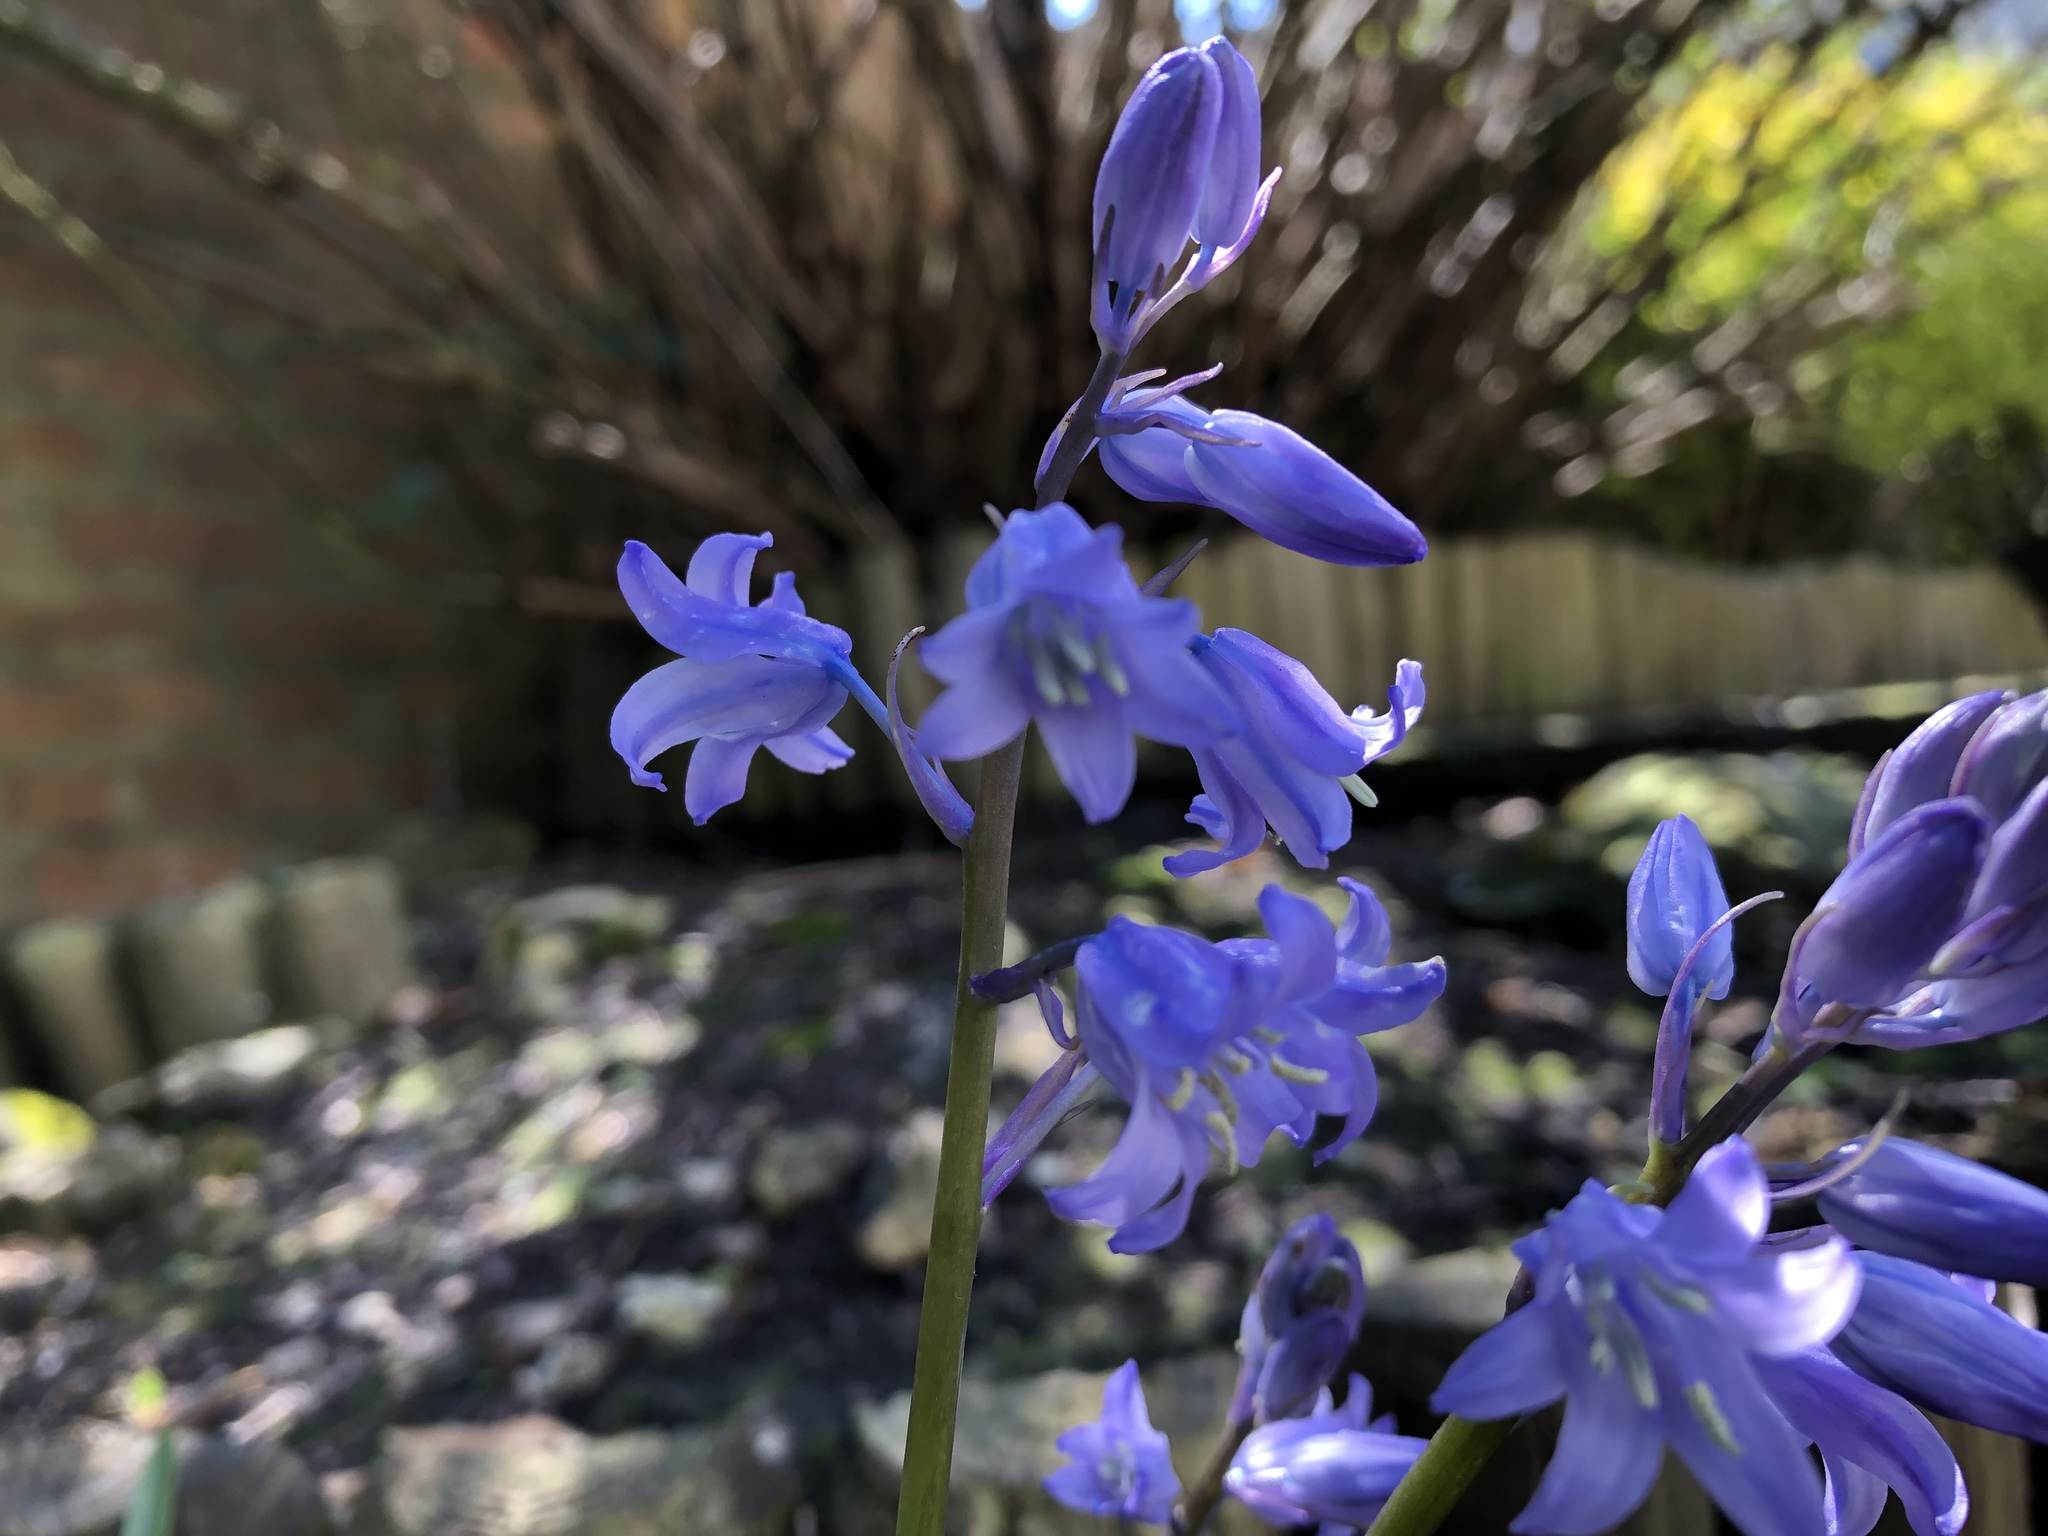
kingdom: Plantae
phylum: Tracheophyta
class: Liliopsida
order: Asparagales
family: Asparagaceae
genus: Hyacinthoides
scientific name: Hyacinthoides massartiana
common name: Hyacinthoides
